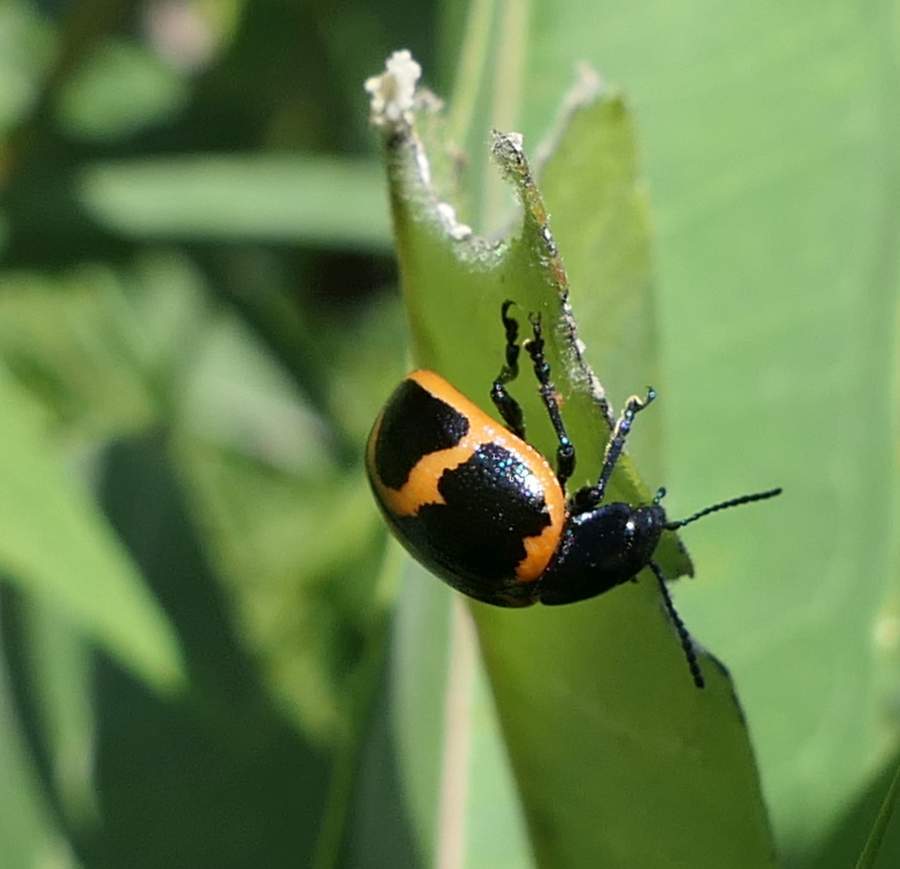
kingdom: Animalia
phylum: Arthropoda
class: Insecta
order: Coleoptera
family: Chrysomelidae
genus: Labidomera
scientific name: Labidomera clivicollis
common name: Swamp milkweed leaf beetle
